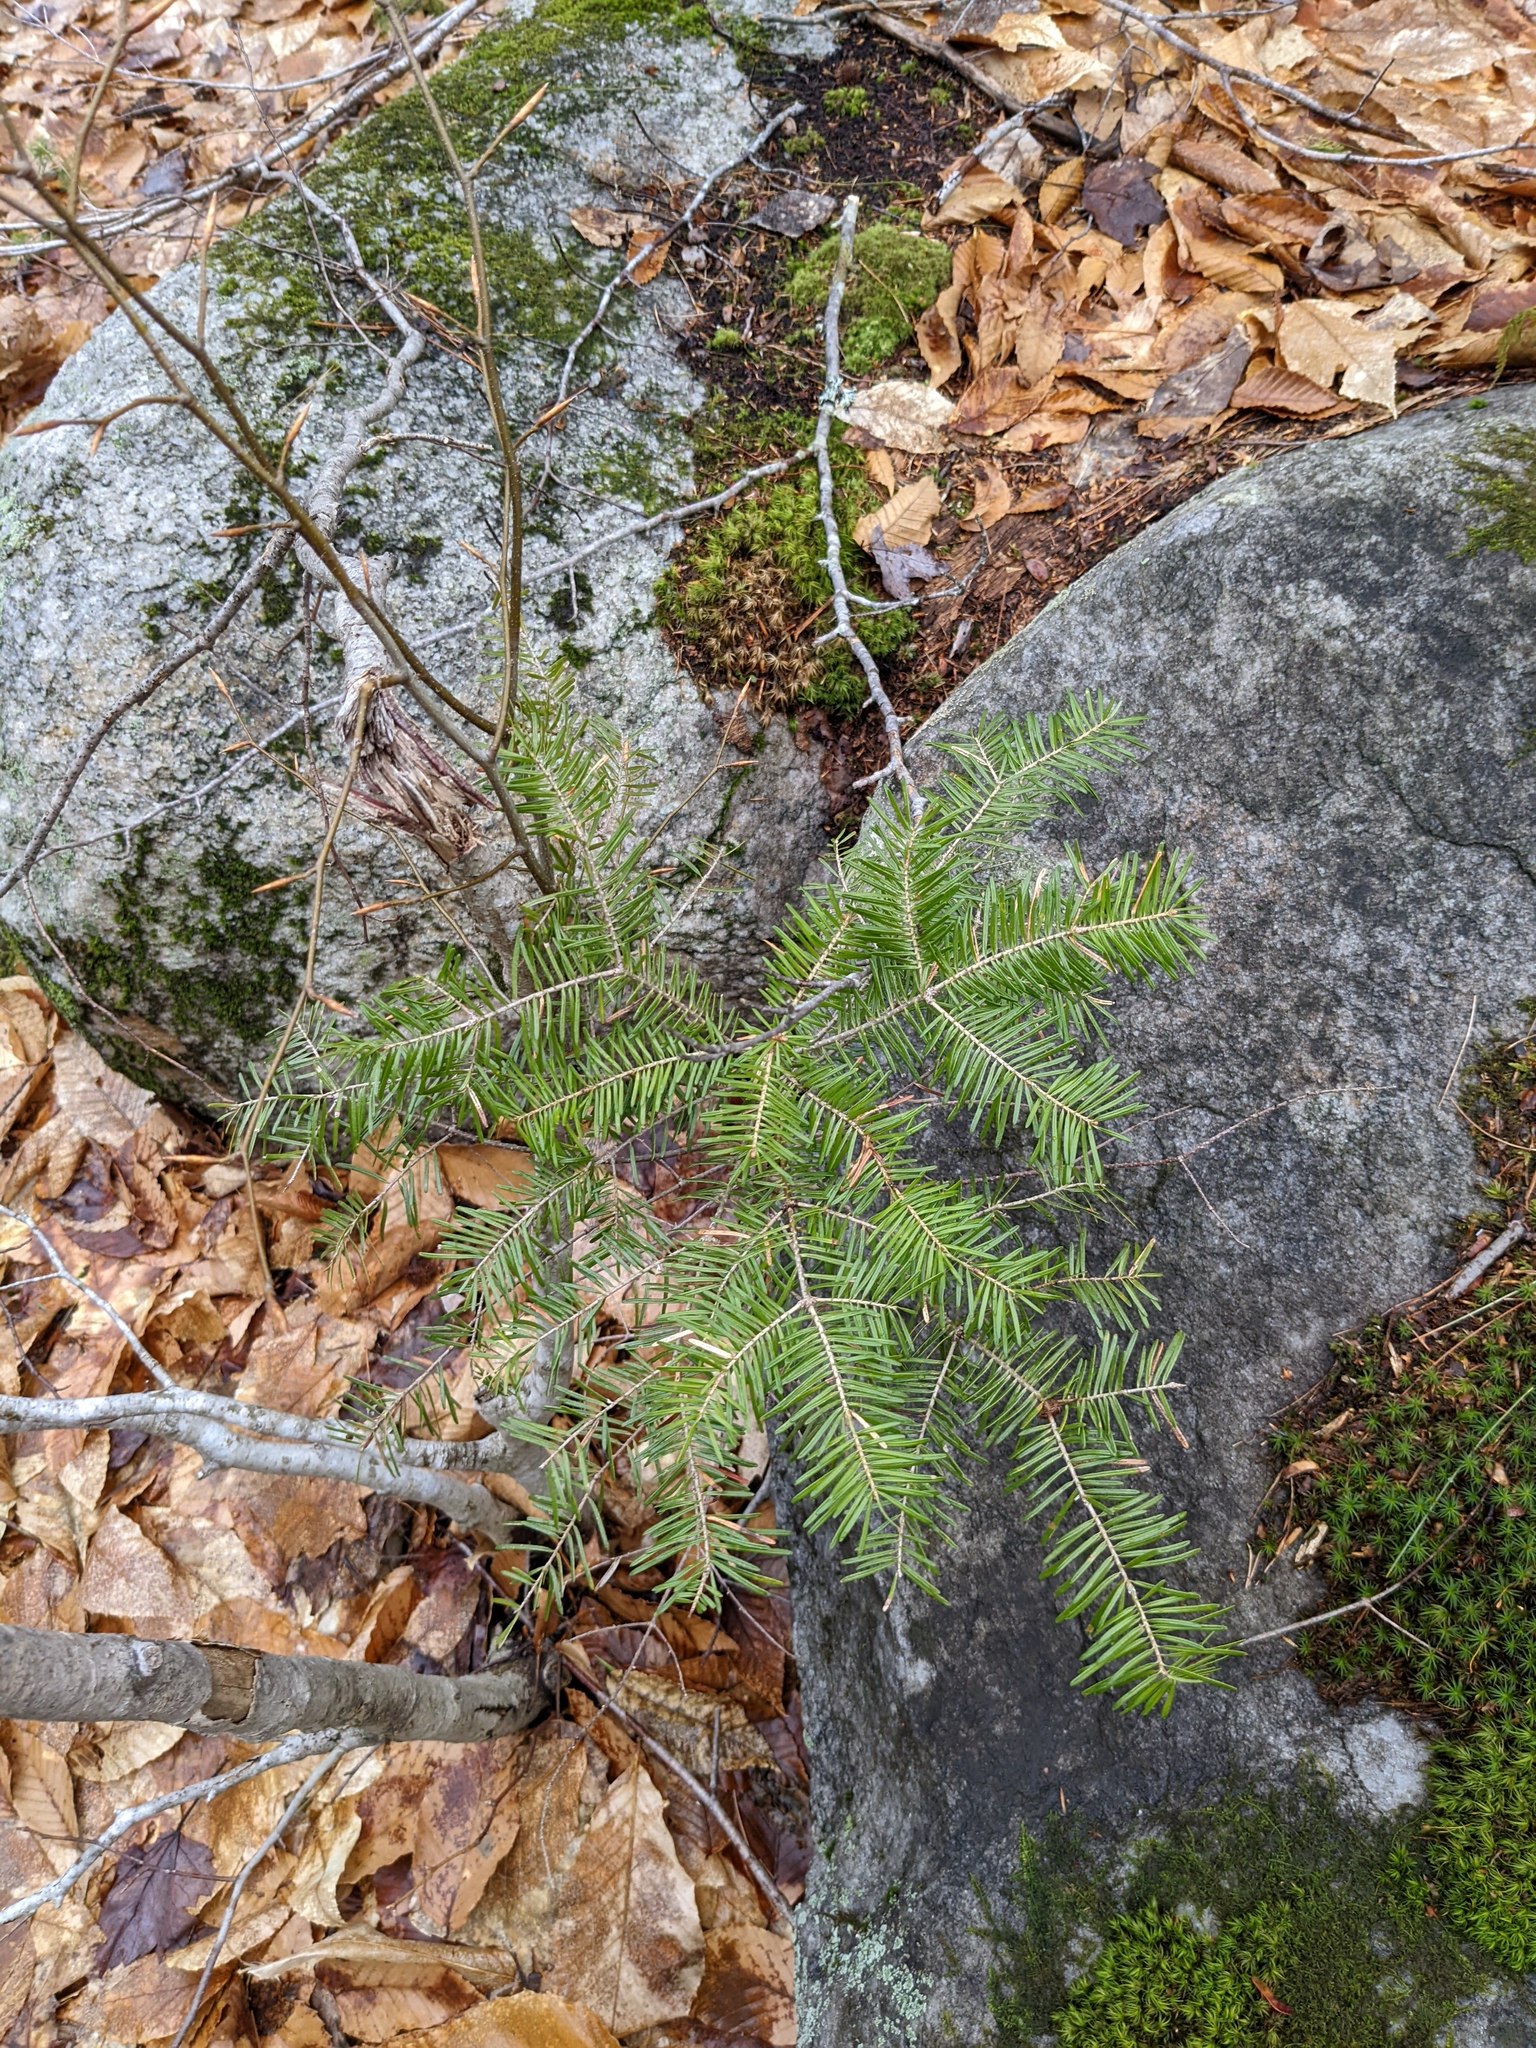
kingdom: Plantae
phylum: Tracheophyta
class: Pinopsida
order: Pinales
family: Pinaceae
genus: Abies
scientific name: Abies balsamea
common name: Balsam fir
